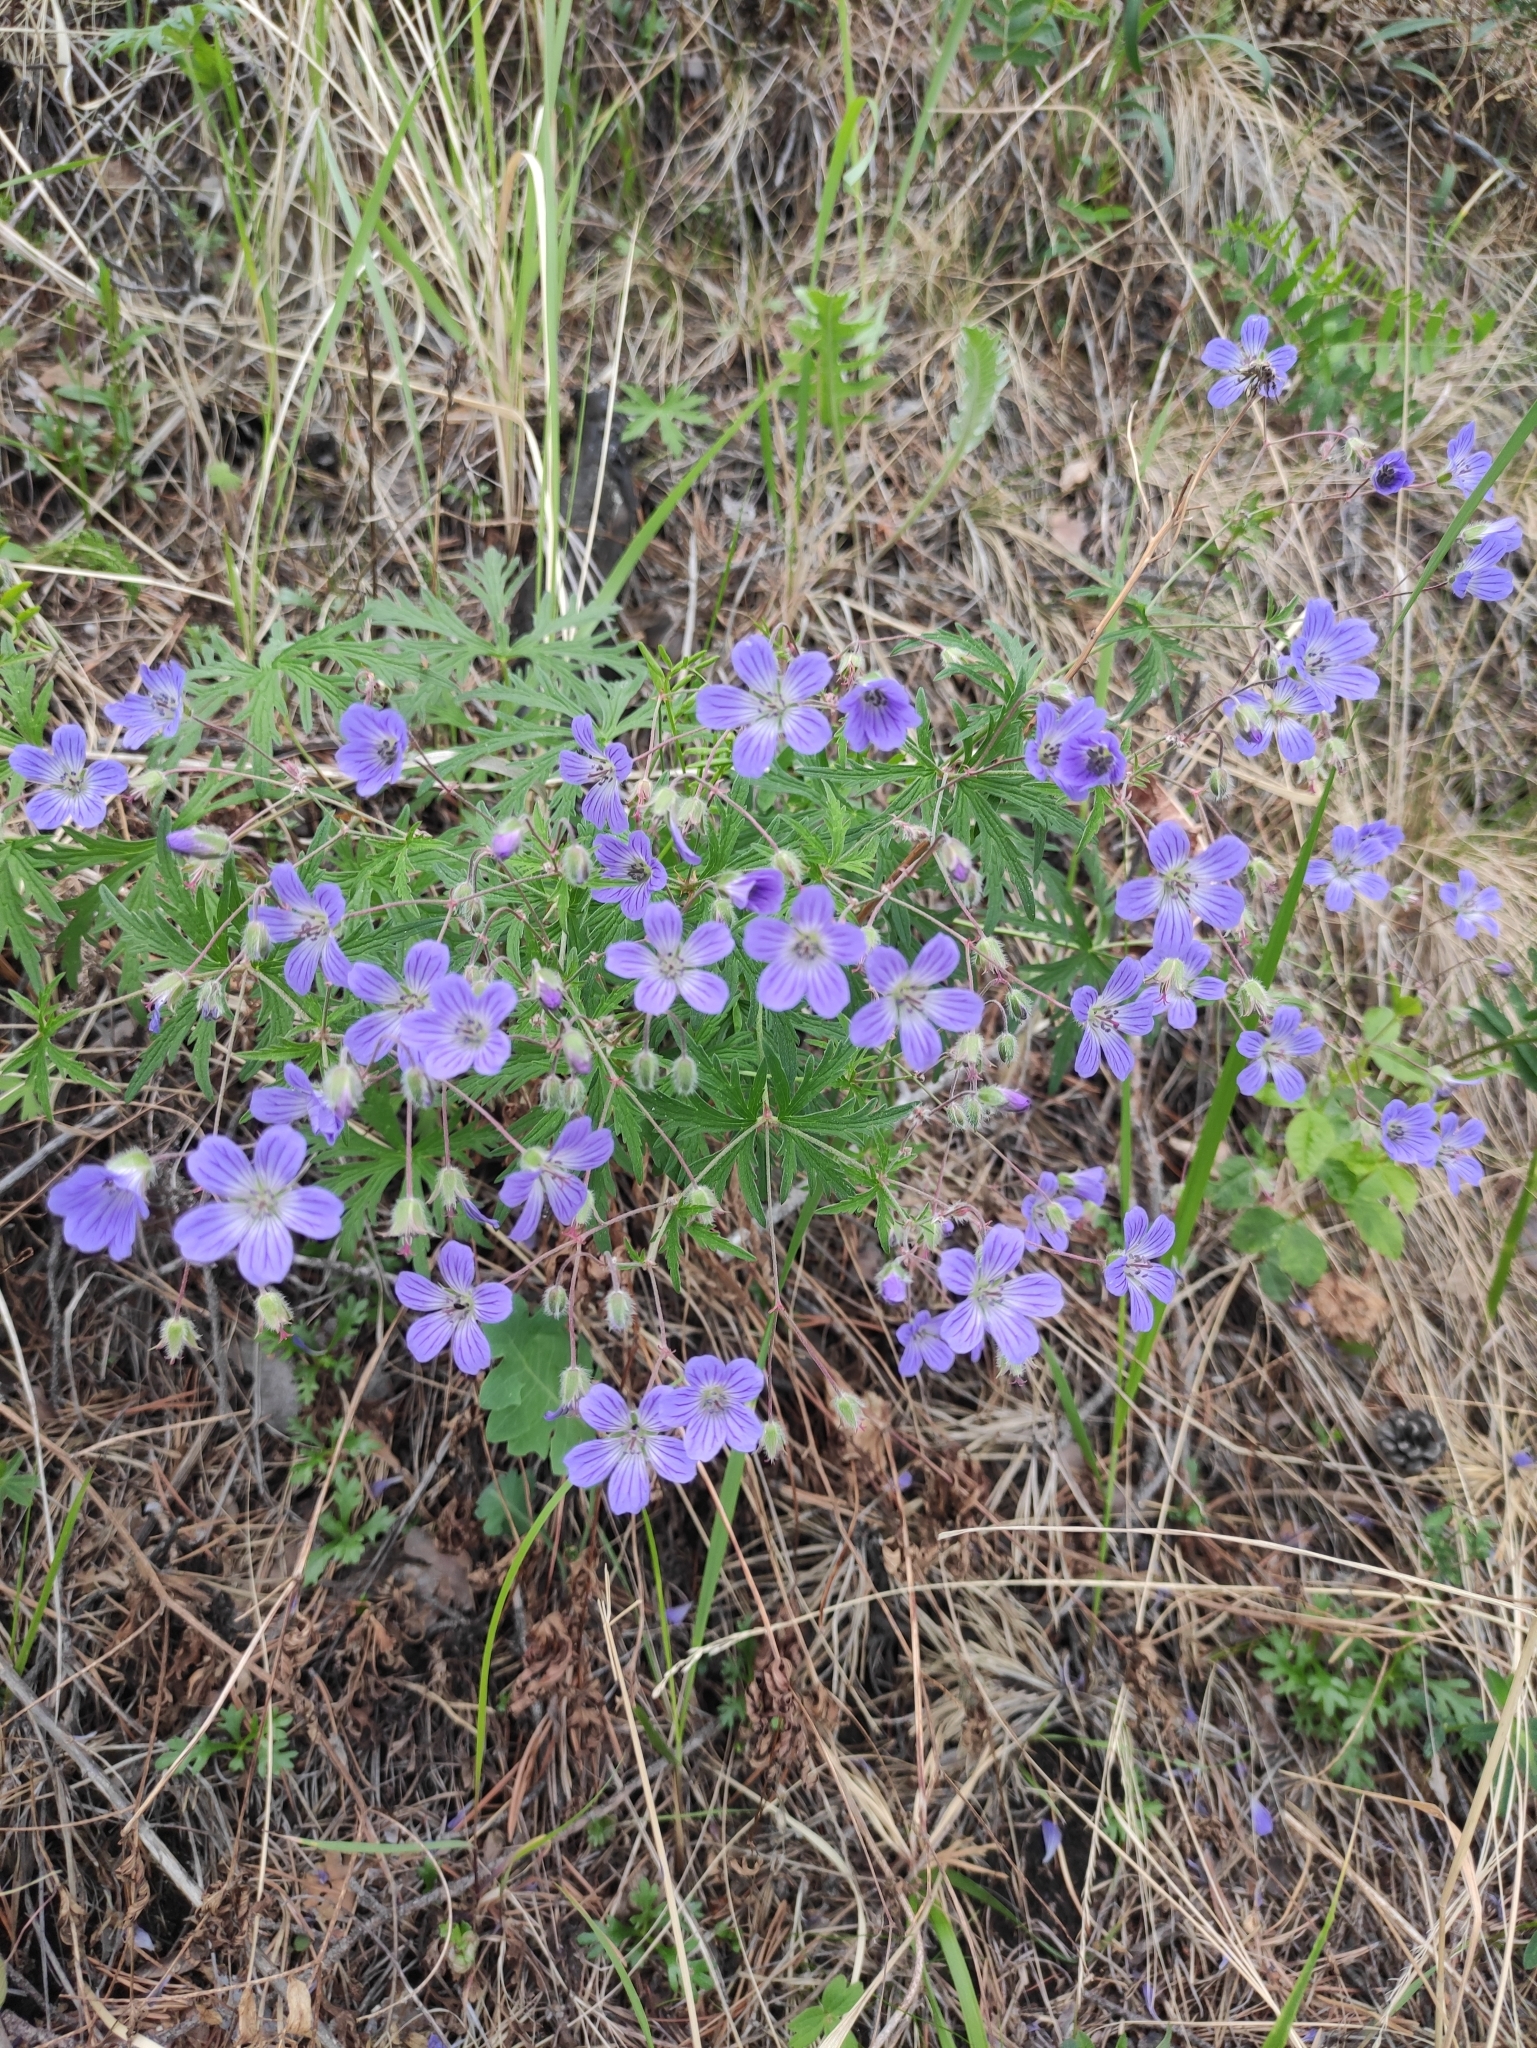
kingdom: Plantae
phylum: Tracheophyta
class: Magnoliopsida
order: Geraniales
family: Geraniaceae
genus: Geranium
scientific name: Geranium pseudosibiricum
